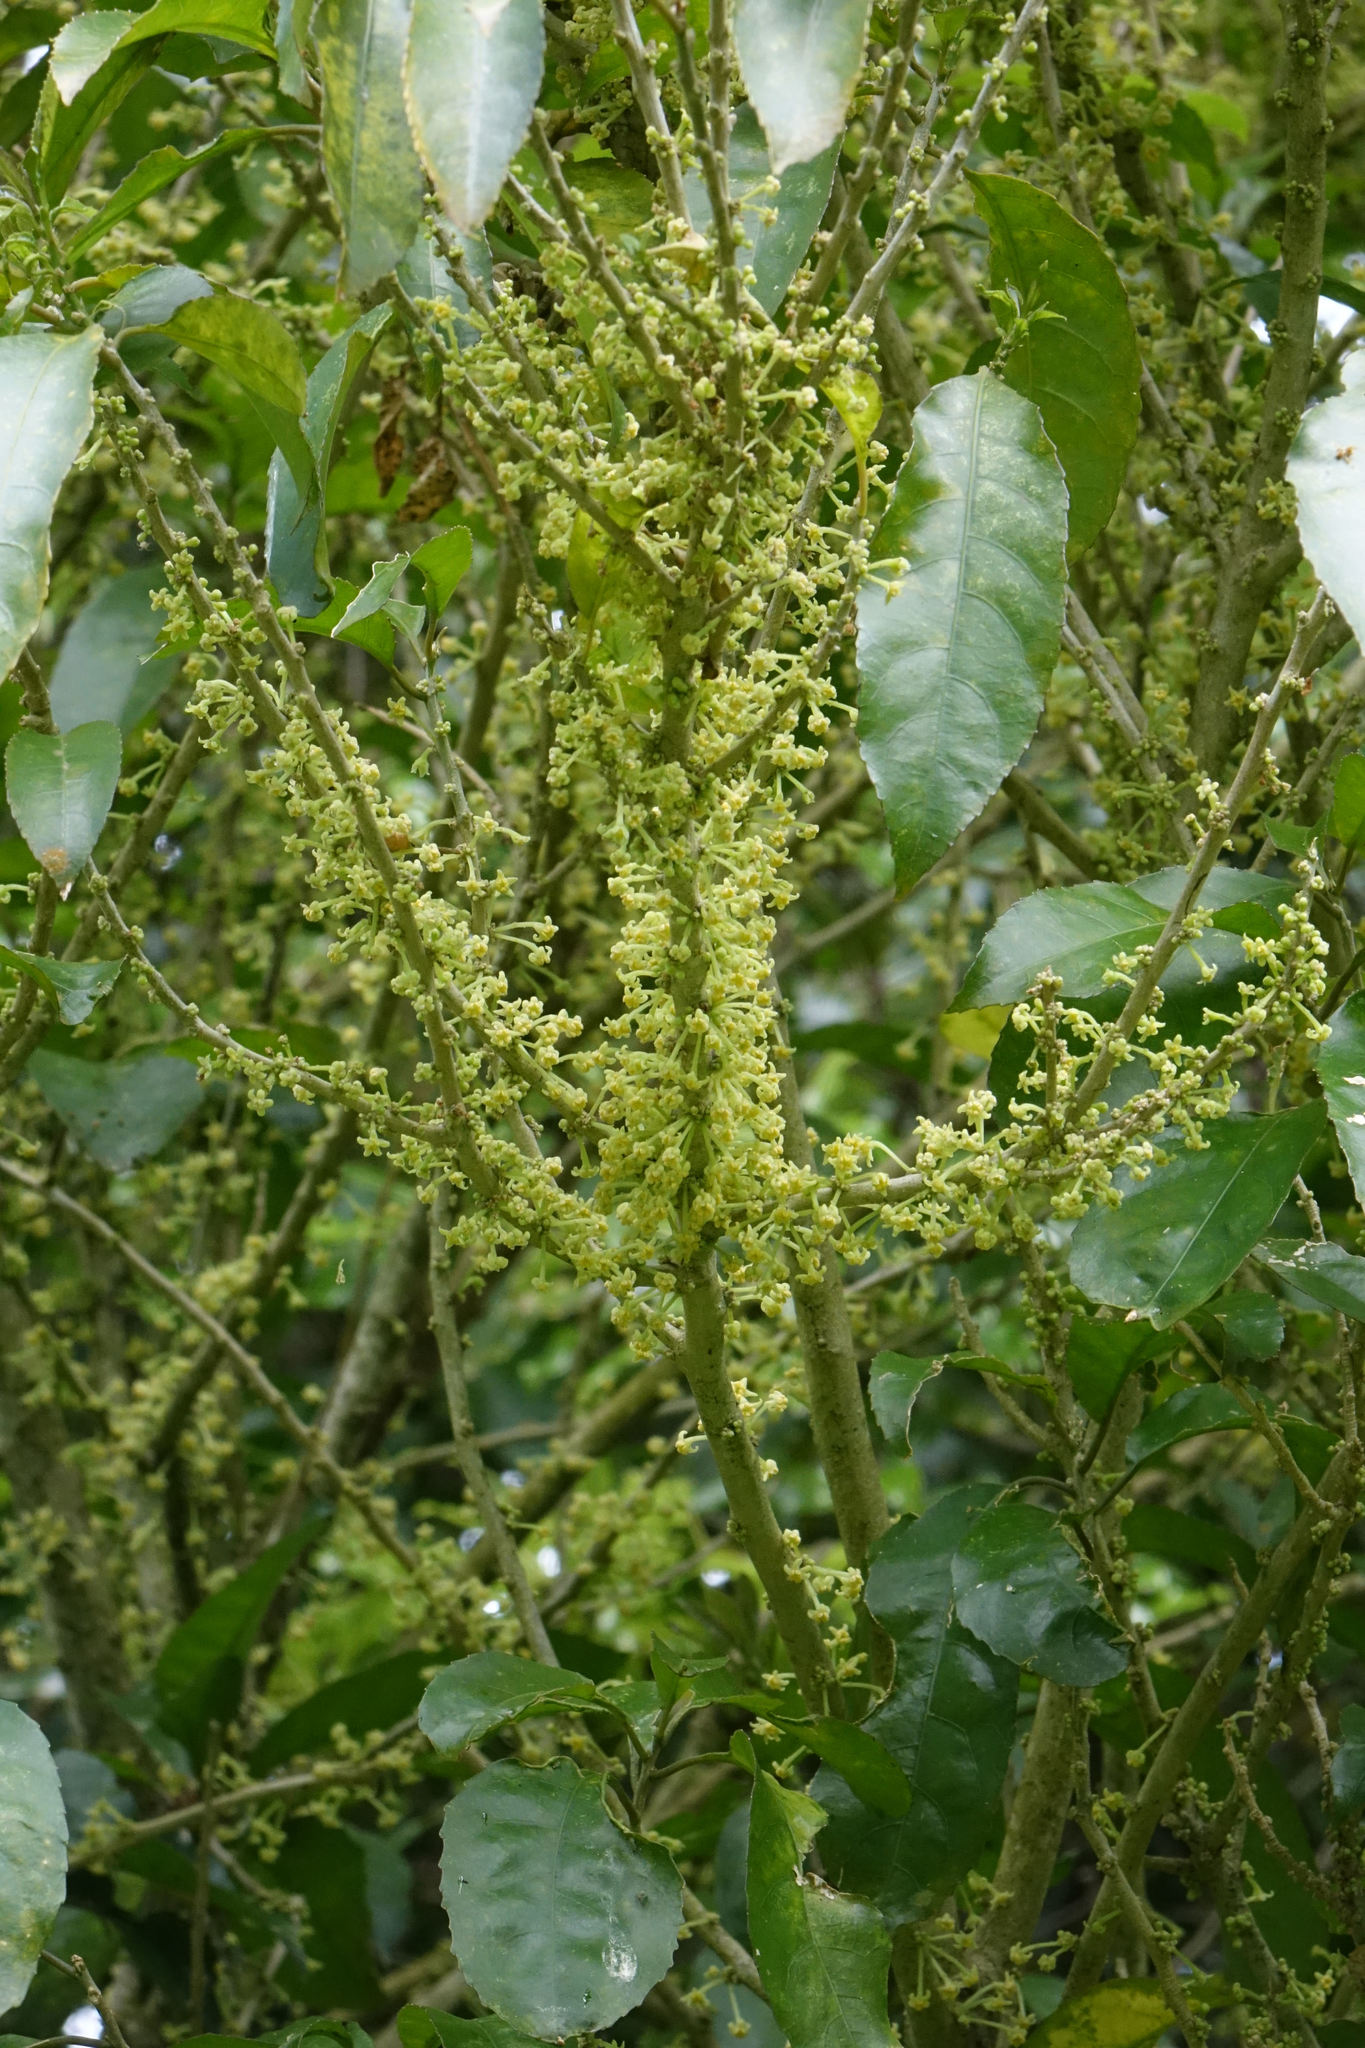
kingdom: Plantae
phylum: Tracheophyta
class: Magnoliopsida
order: Malpighiales
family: Violaceae
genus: Melicytus
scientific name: Melicytus ramiflorus
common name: Mahoe
